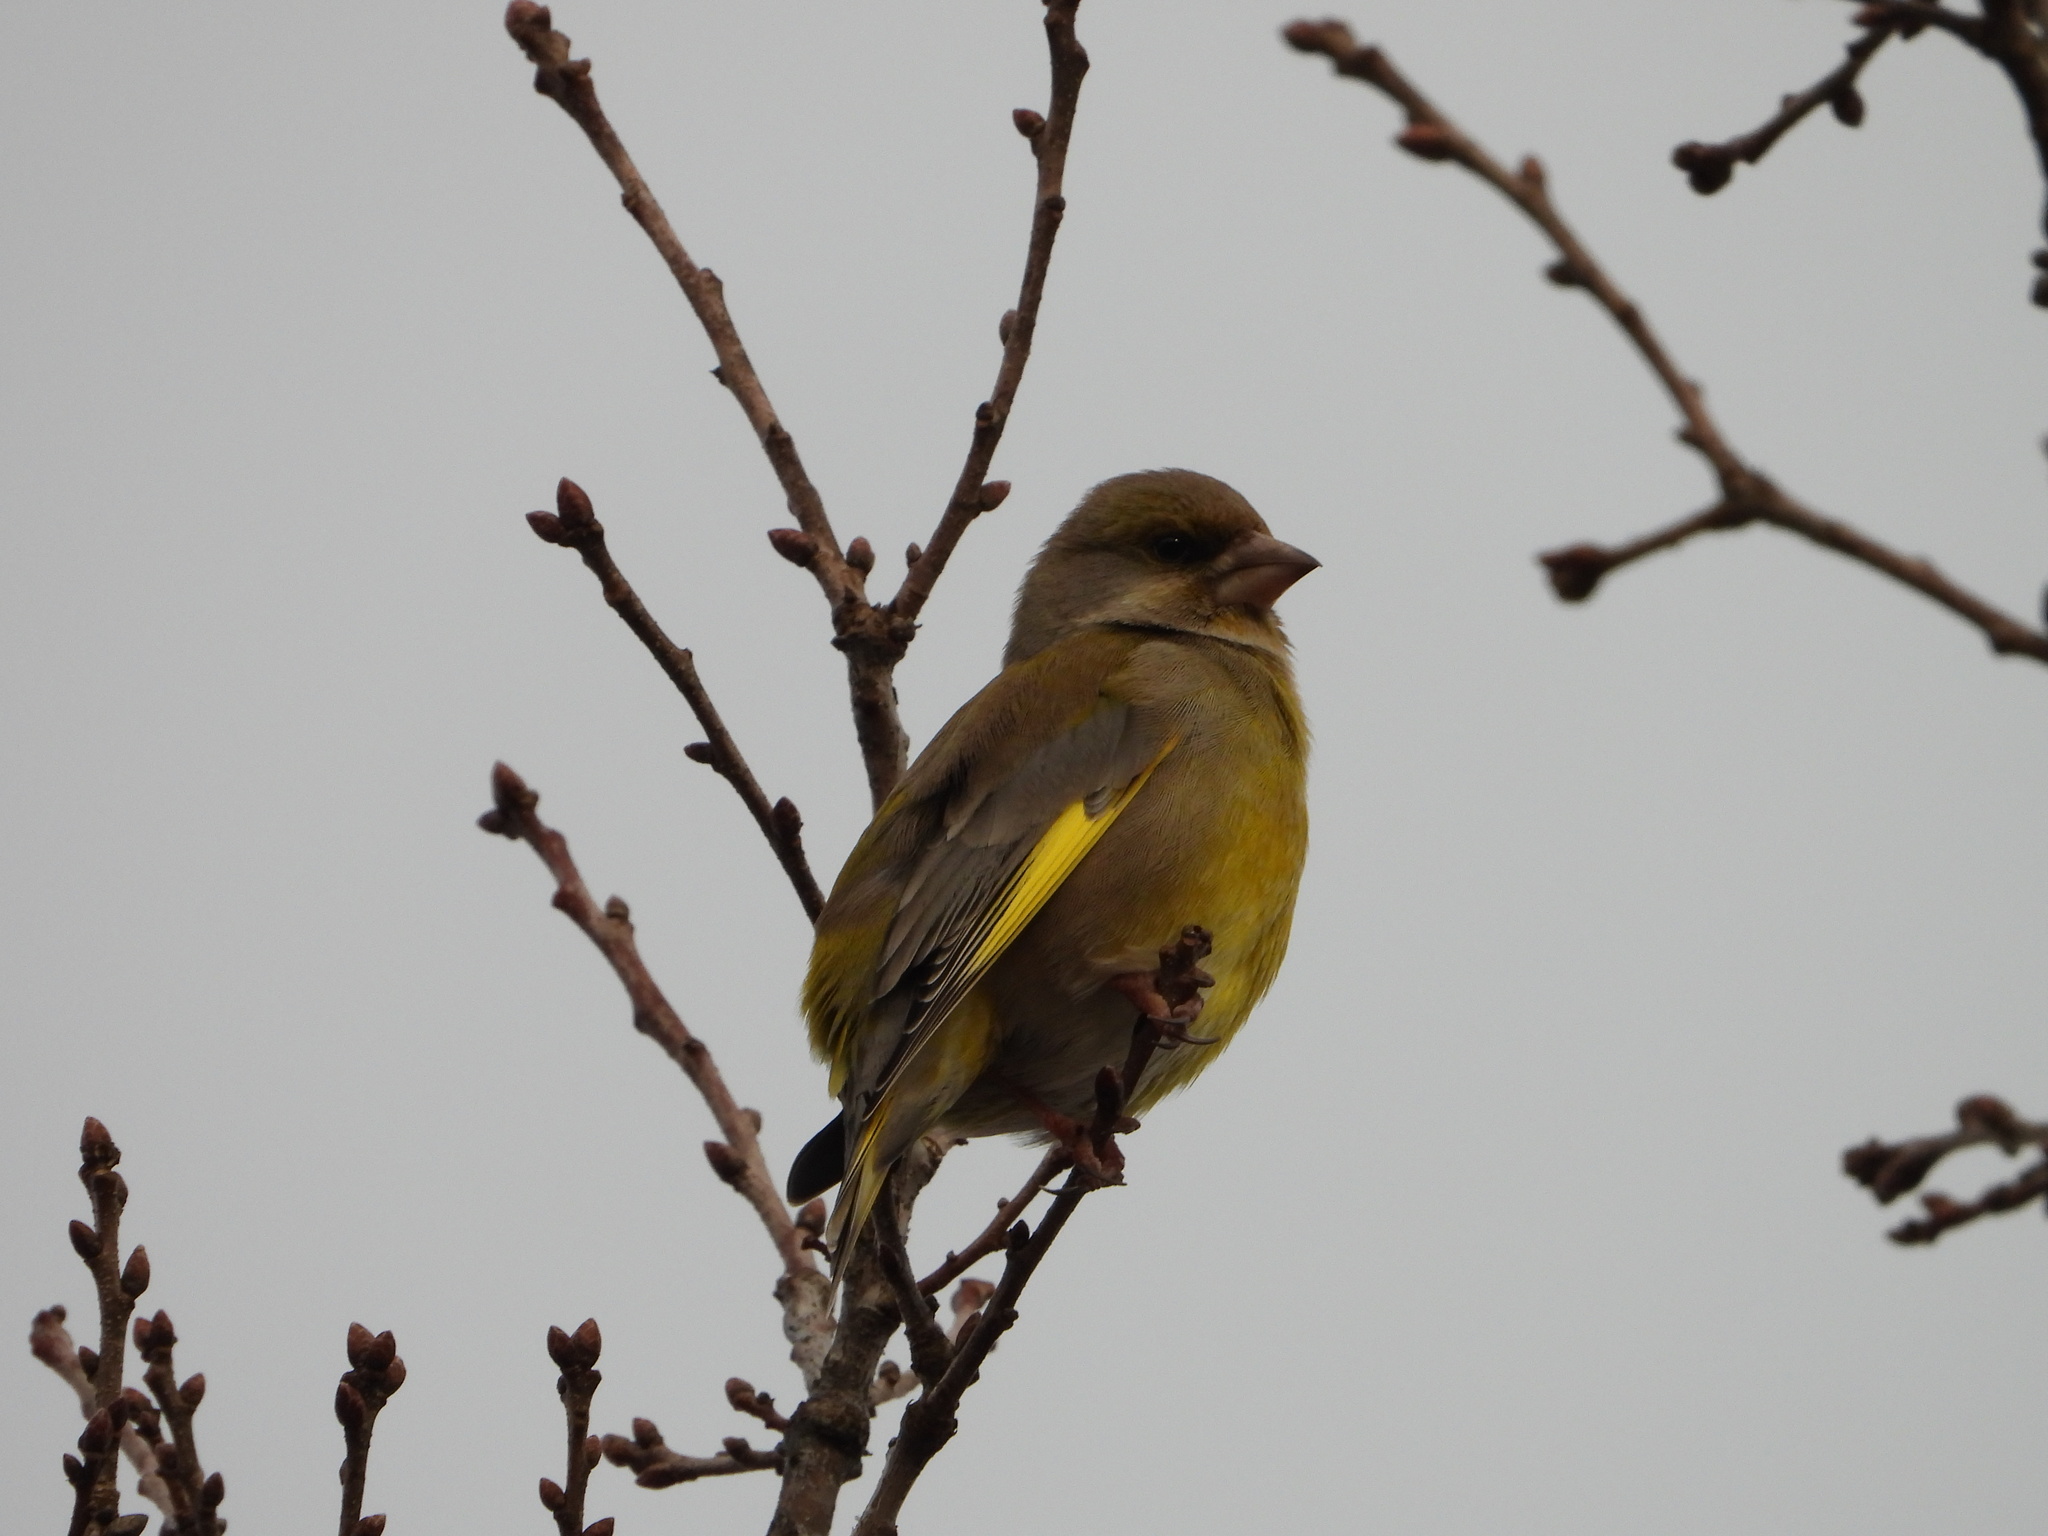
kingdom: Plantae
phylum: Tracheophyta
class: Liliopsida
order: Poales
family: Poaceae
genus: Chloris
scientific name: Chloris chloris
